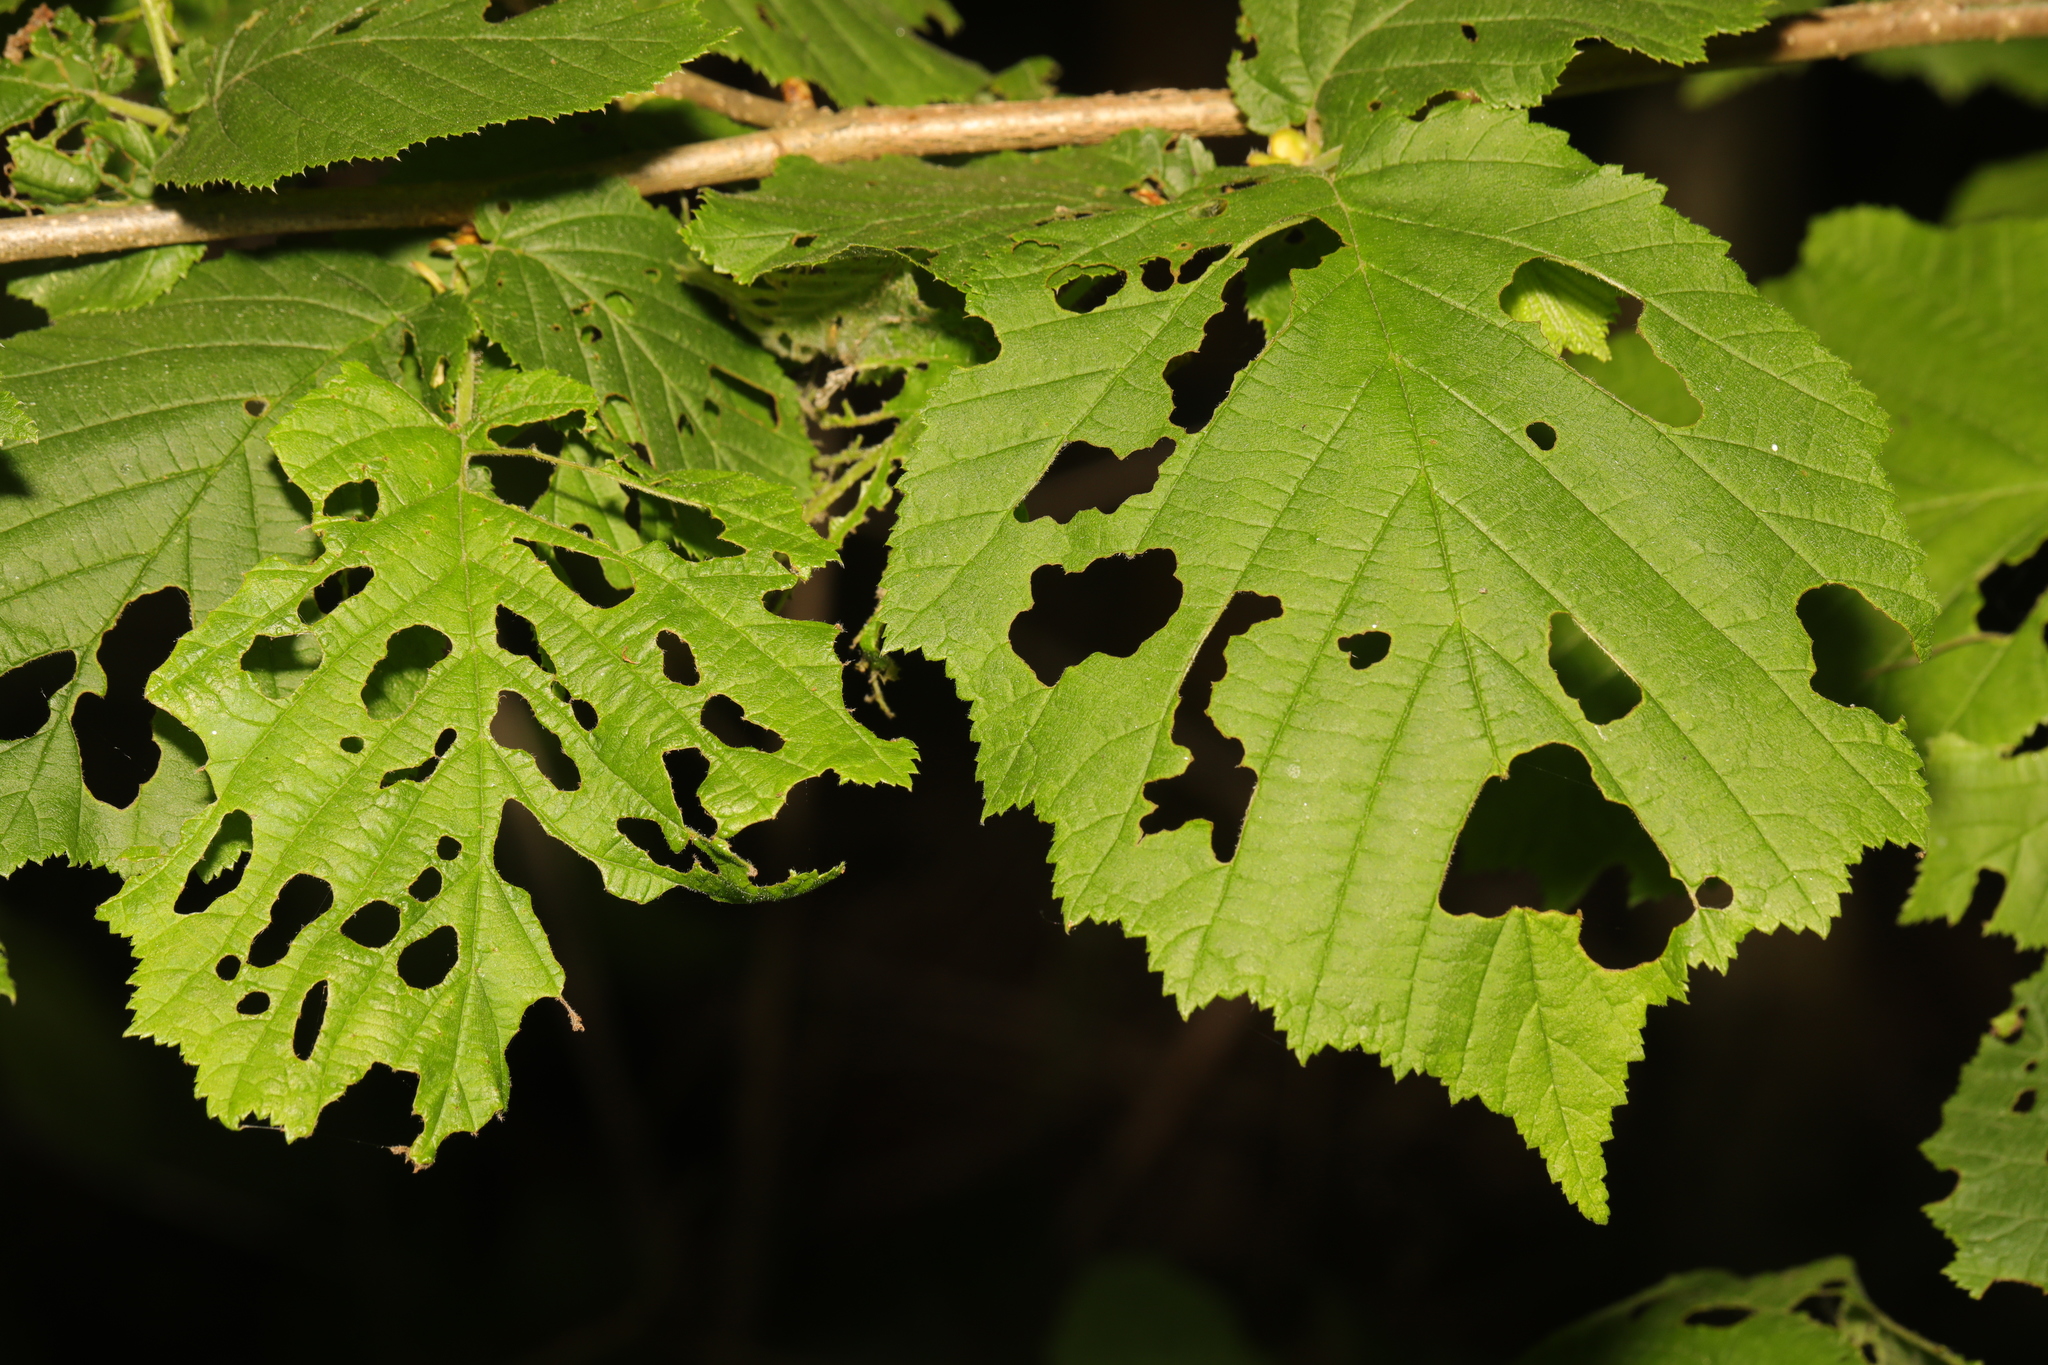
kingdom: Plantae
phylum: Tracheophyta
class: Magnoliopsida
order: Fagales
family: Betulaceae
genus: Corylus
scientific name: Corylus avellana
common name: European hazel
